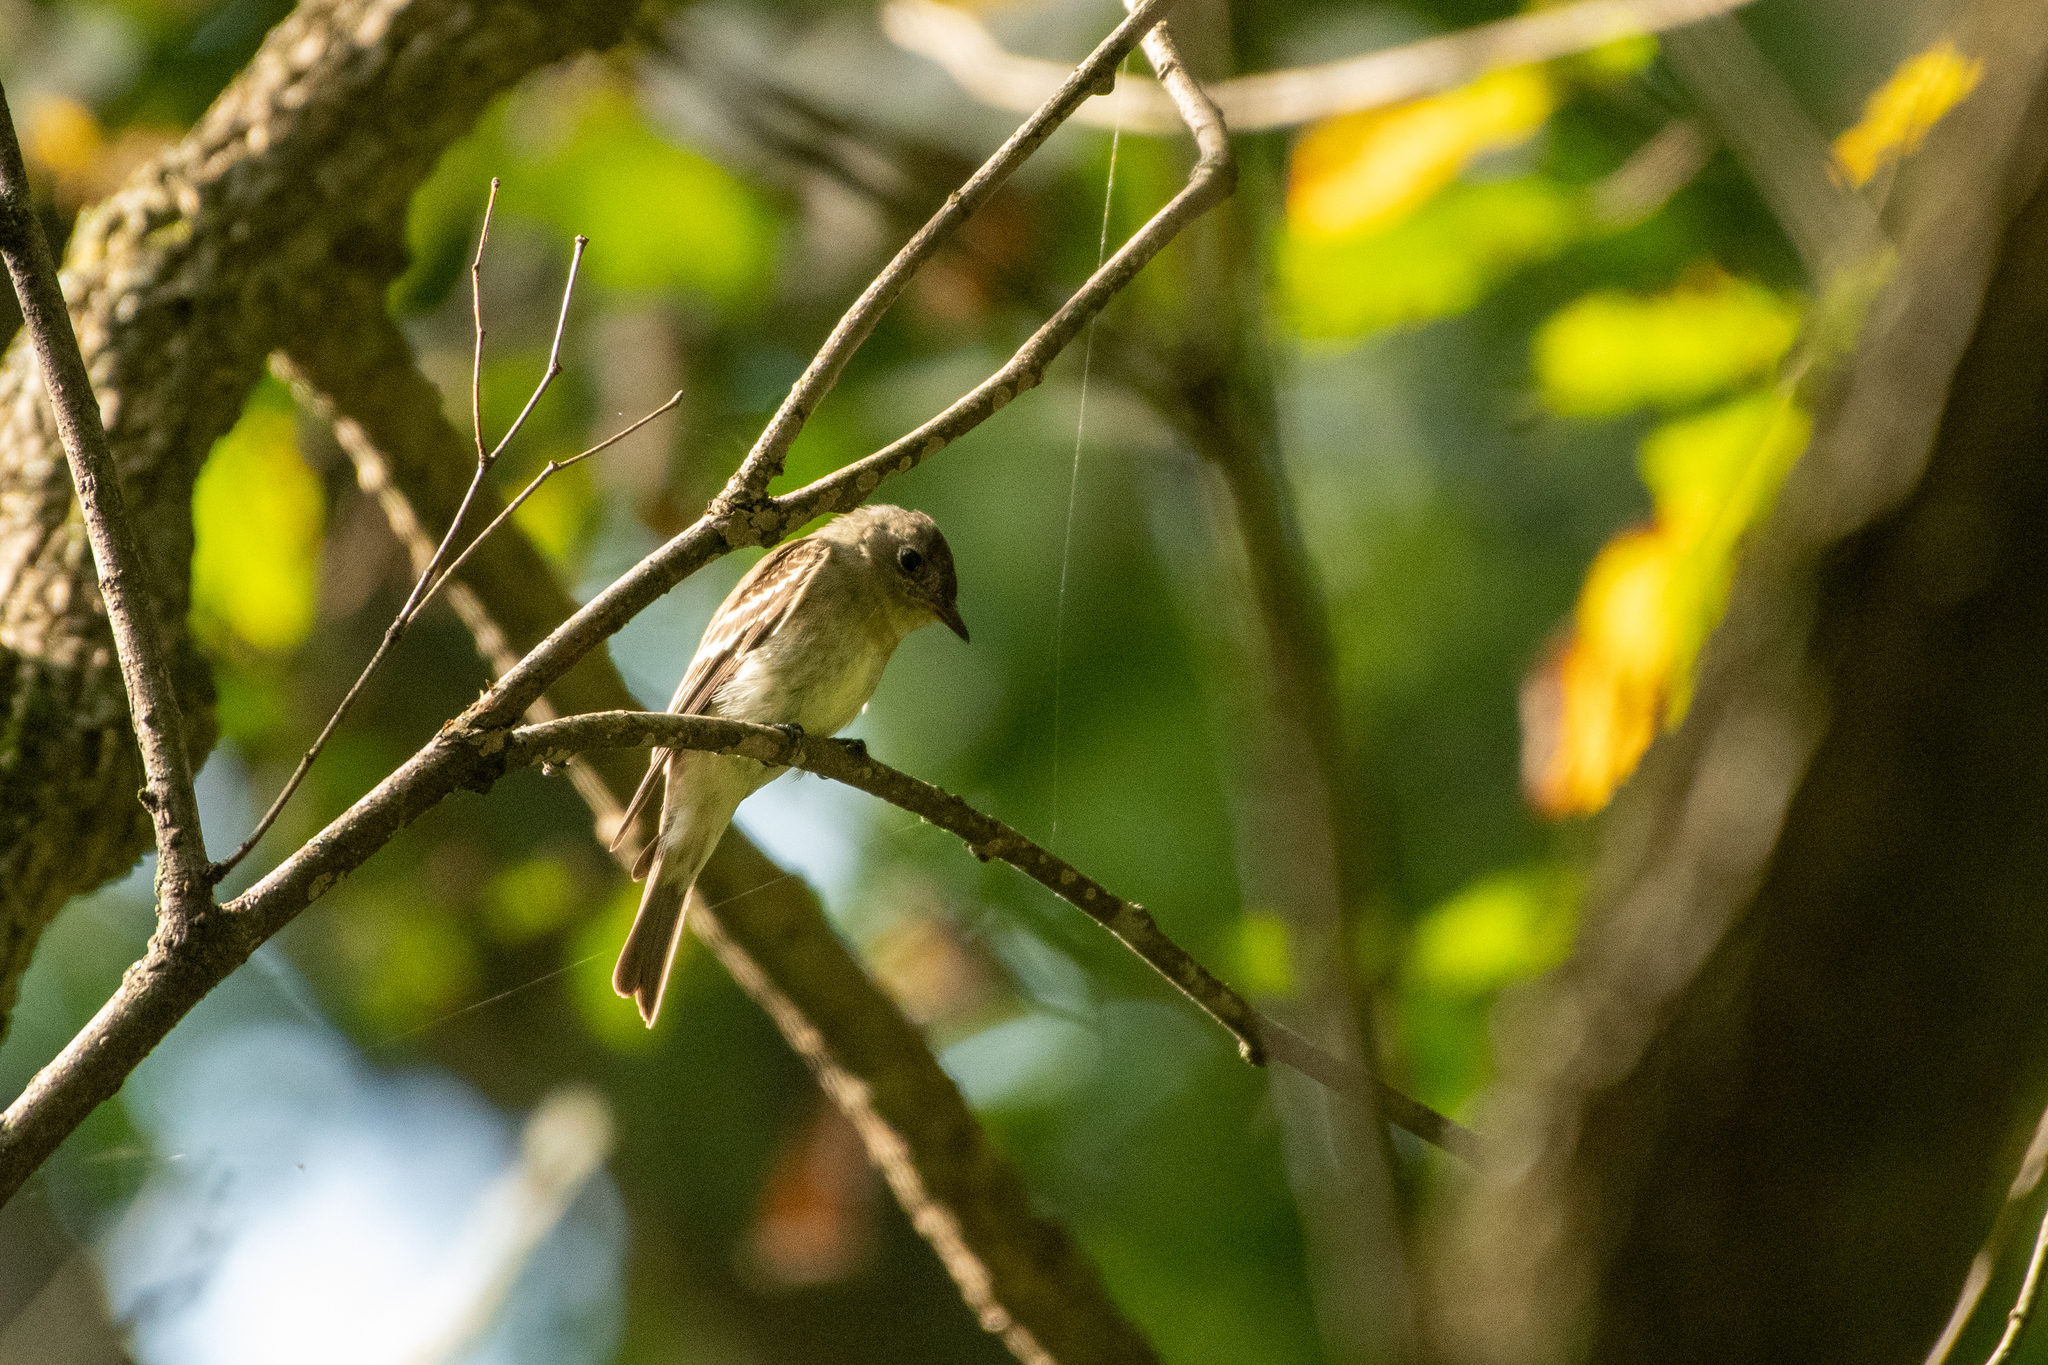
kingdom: Animalia
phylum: Chordata
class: Aves
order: Passeriformes
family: Tyrannidae
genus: Contopus
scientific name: Contopus virens
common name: Eastern wood-pewee
